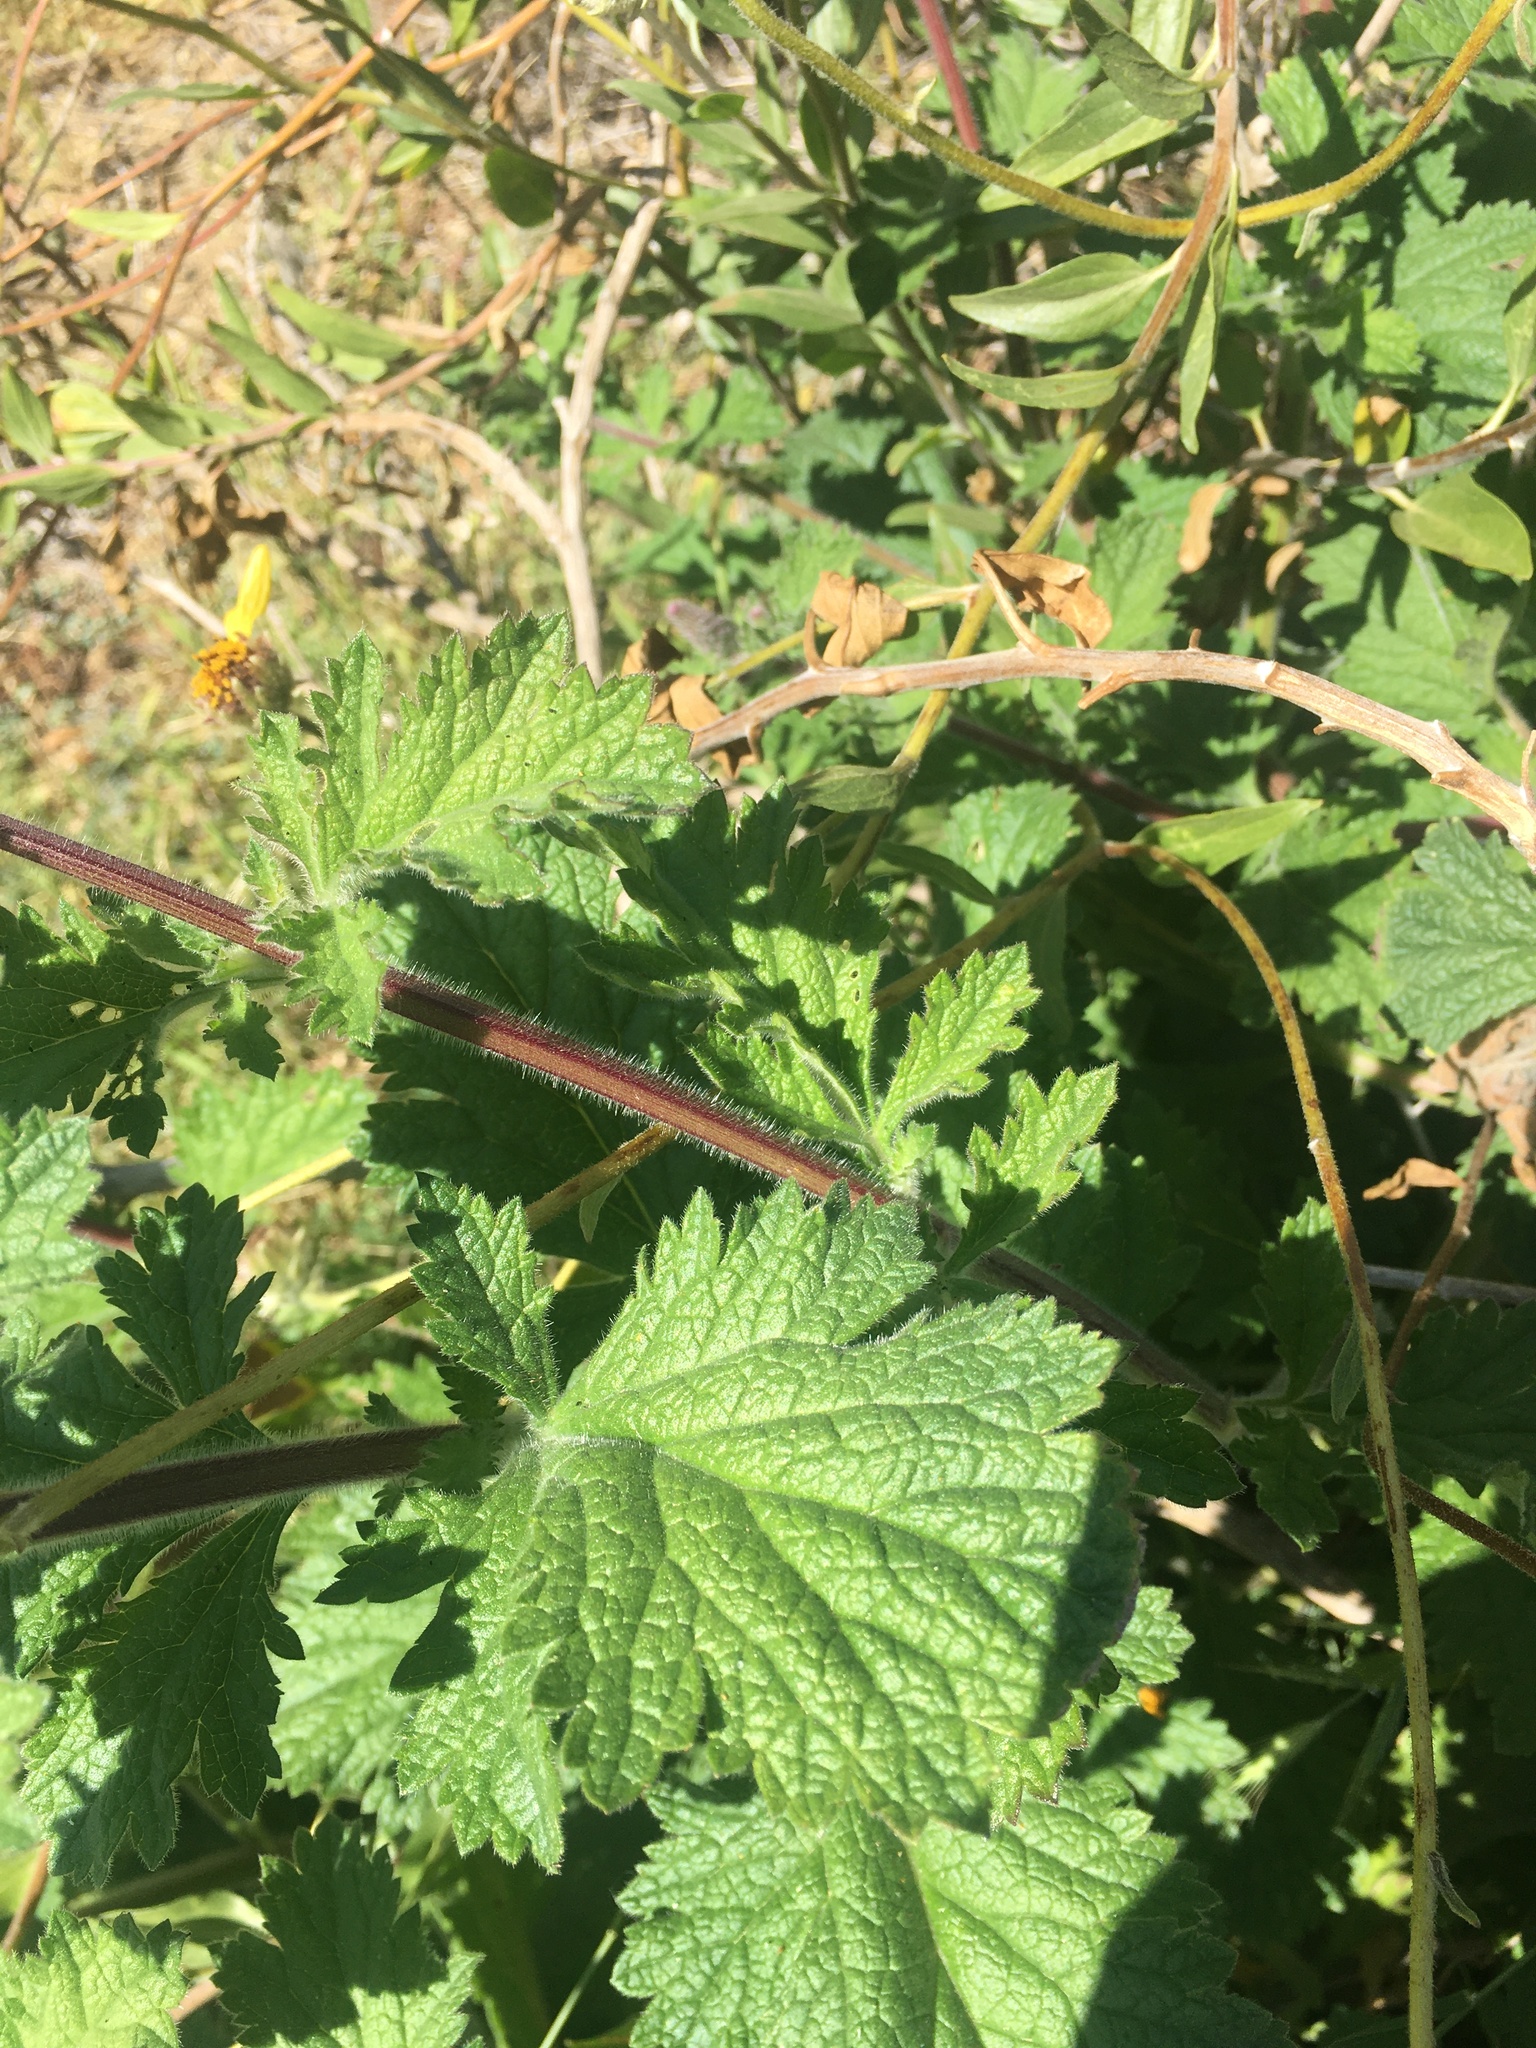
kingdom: Plantae
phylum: Tracheophyta
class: Magnoliopsida
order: Asterales
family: Asteraceae
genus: Encelia
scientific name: Encelia californica
